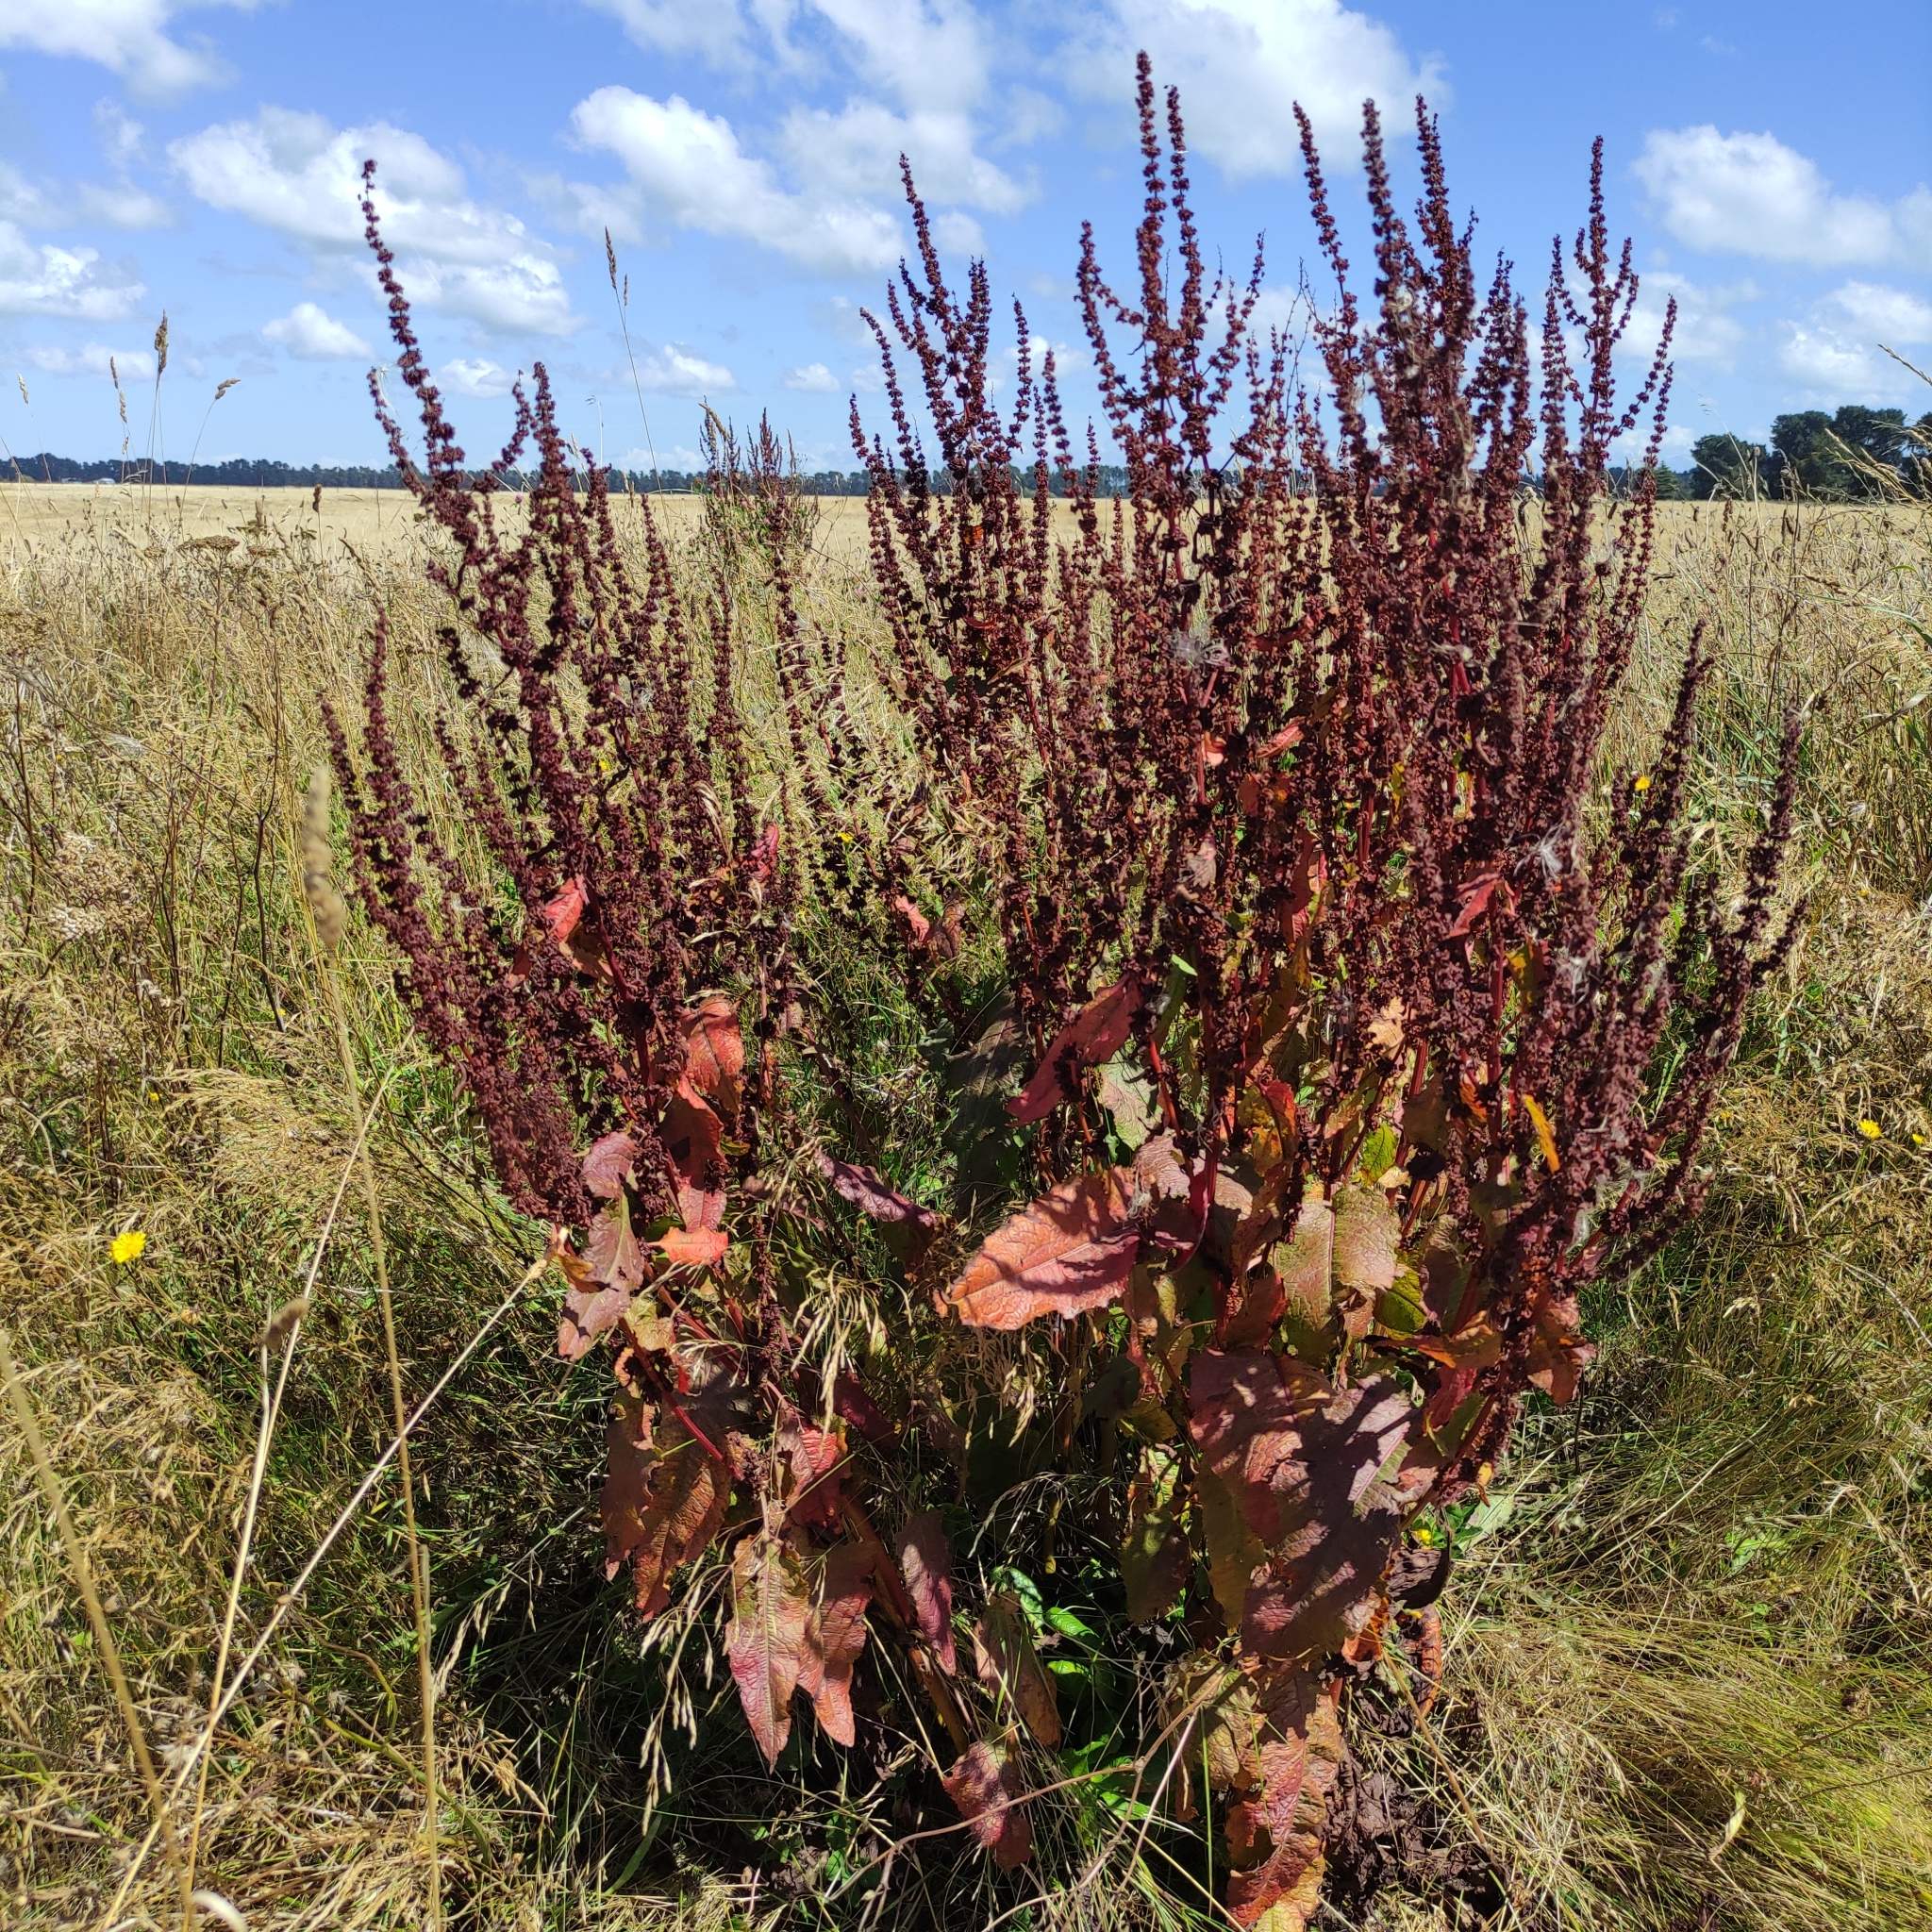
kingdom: Plantae
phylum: Tracheophyta
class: Magnoliopsida
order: Caryophyllales
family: Polygonaceae
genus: Rumex
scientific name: Rumex obtusifolius
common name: Bitter dock
